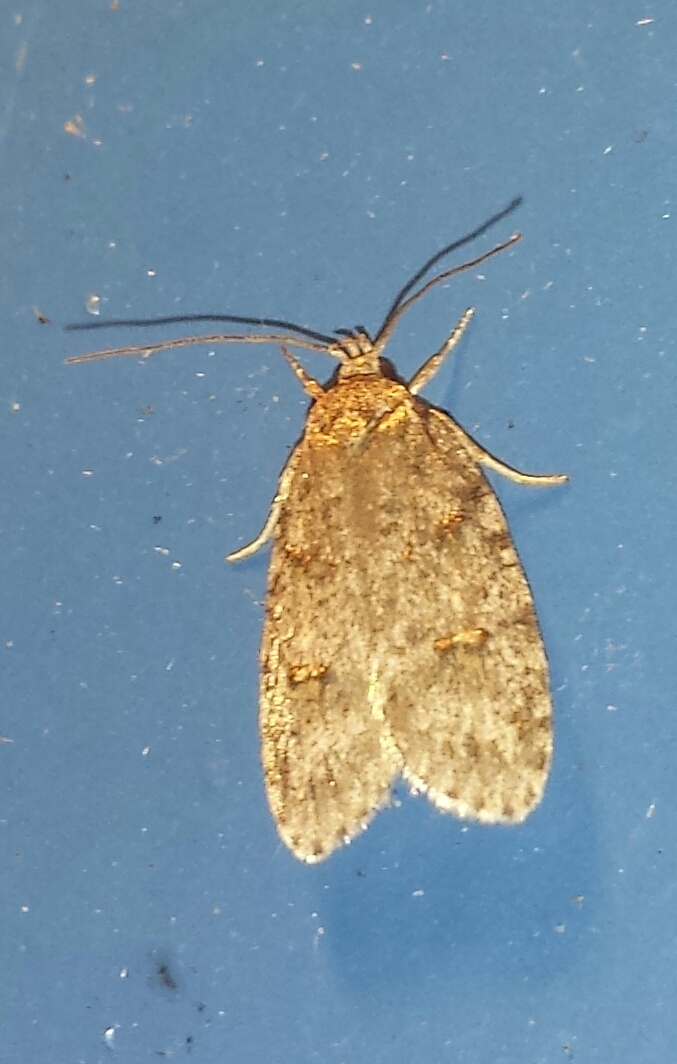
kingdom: Animalia
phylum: Arthropoda
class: Insecta
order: Lepidoptera
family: Depressariidae
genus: Bibarrambla
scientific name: Bibarrambla allenella
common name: Bog bibarrambla moth
